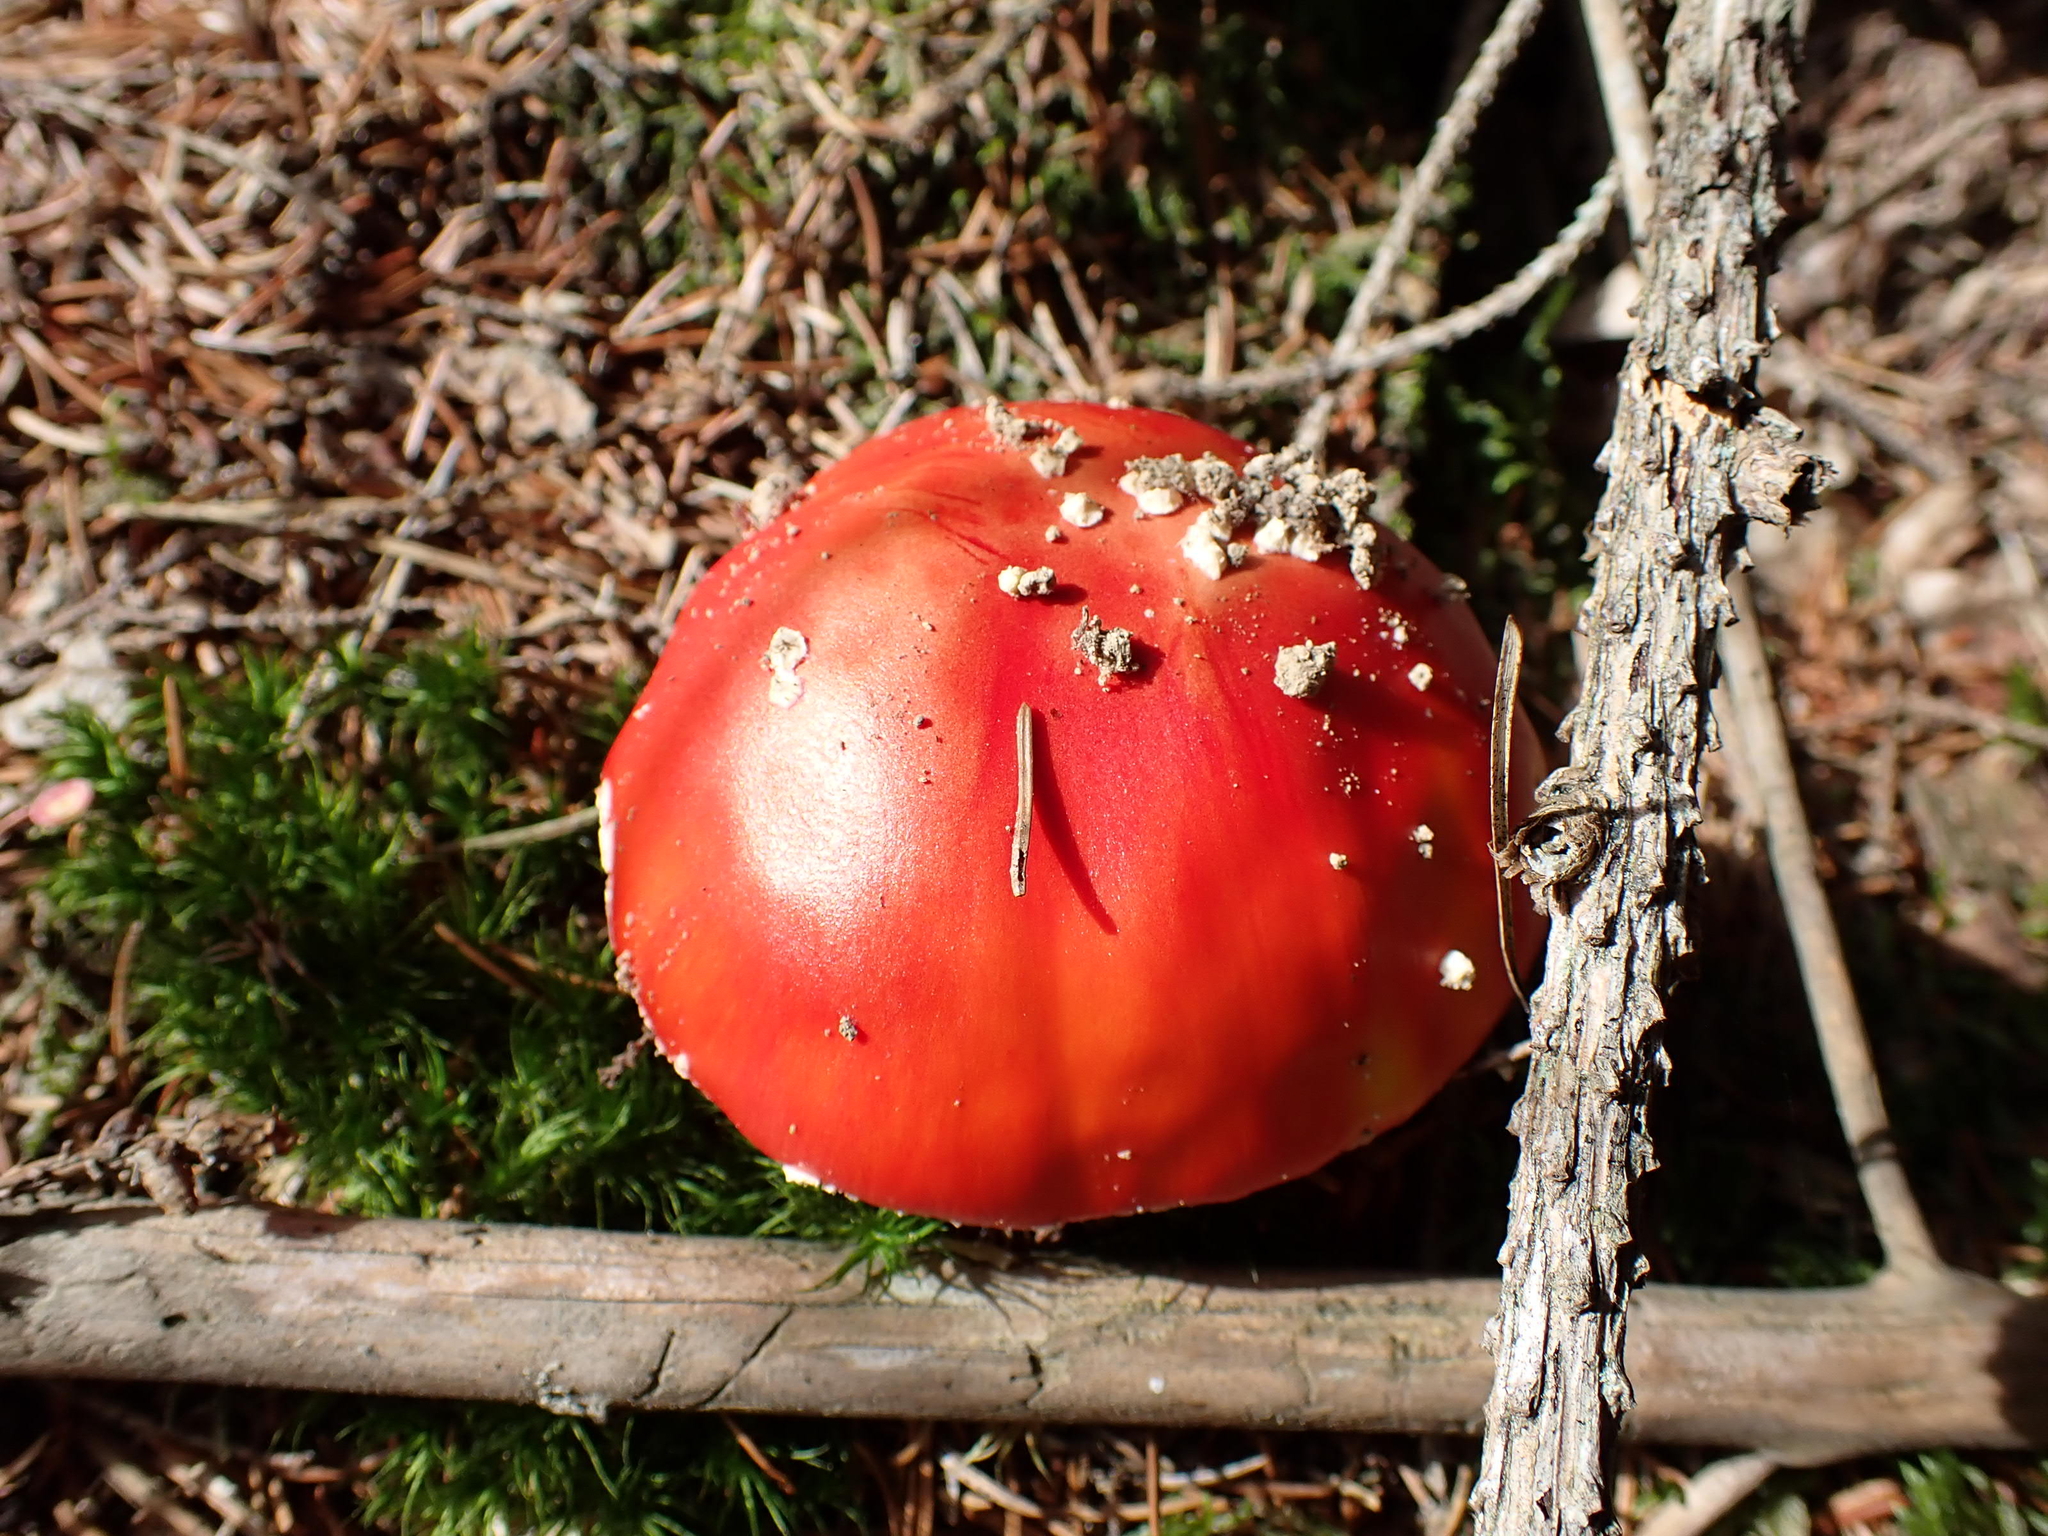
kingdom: Fungi
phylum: Basidiomycota
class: Agaricomycetes
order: Agaricales
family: Amanitaceae
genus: Amanita
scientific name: Amanita muscaria
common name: Fly agaric
